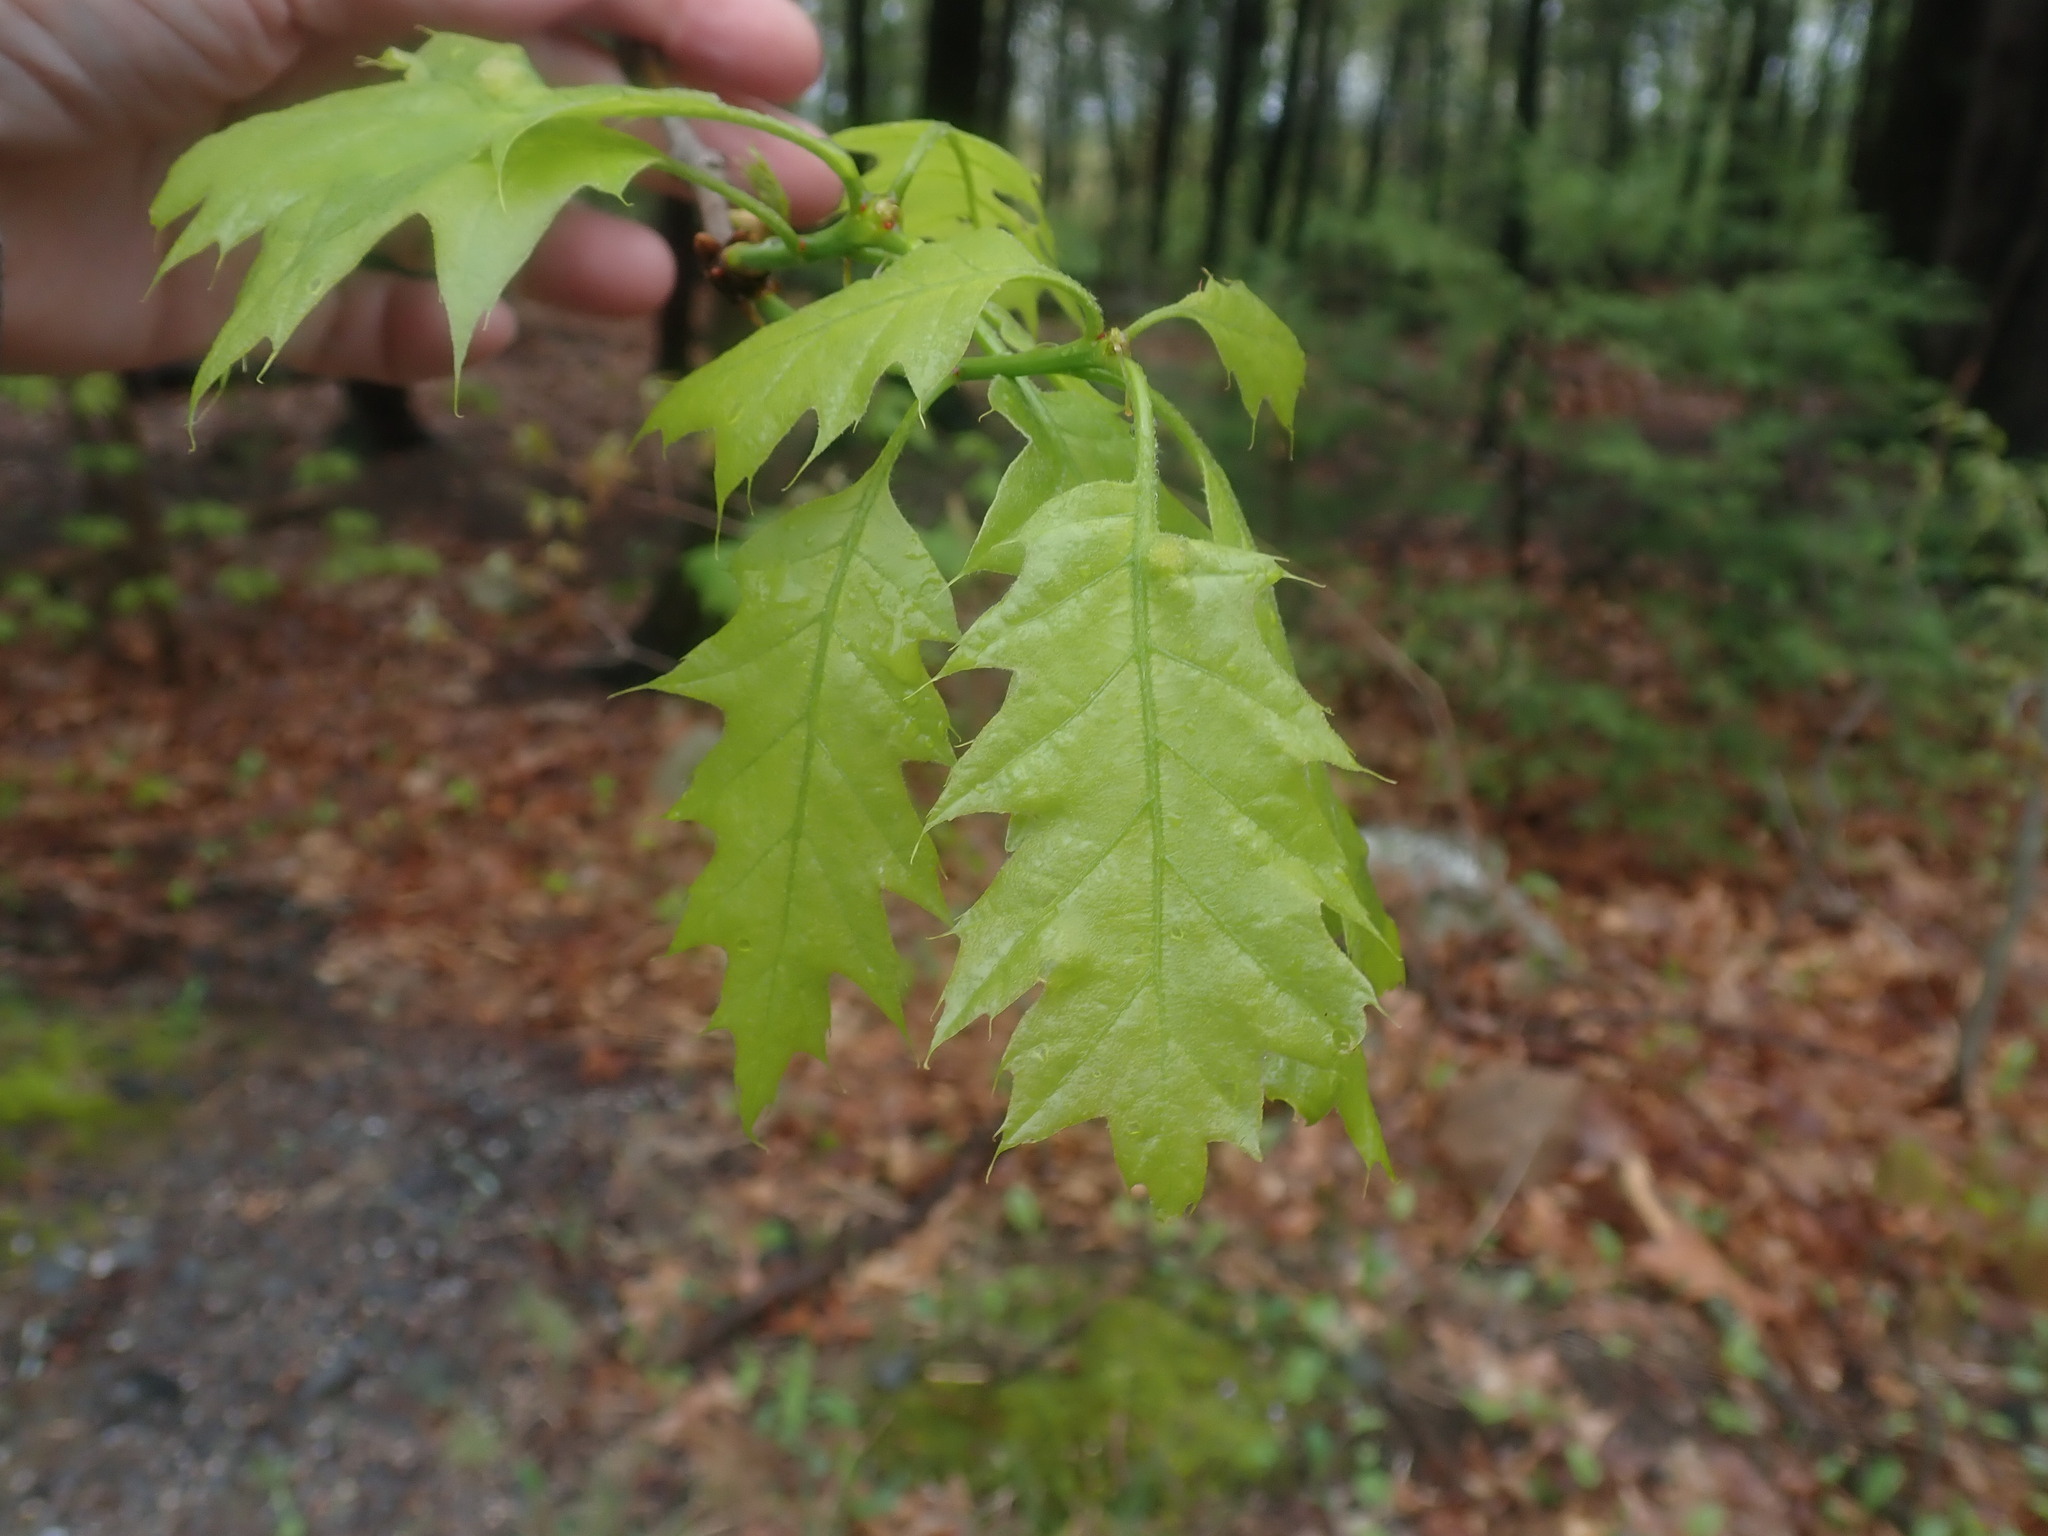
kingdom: Plantae
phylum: Tracheophyta
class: Magnoliopsida
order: Fagales
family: Fagaceae
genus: Quercus
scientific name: Quercus rubra
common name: Red oak
